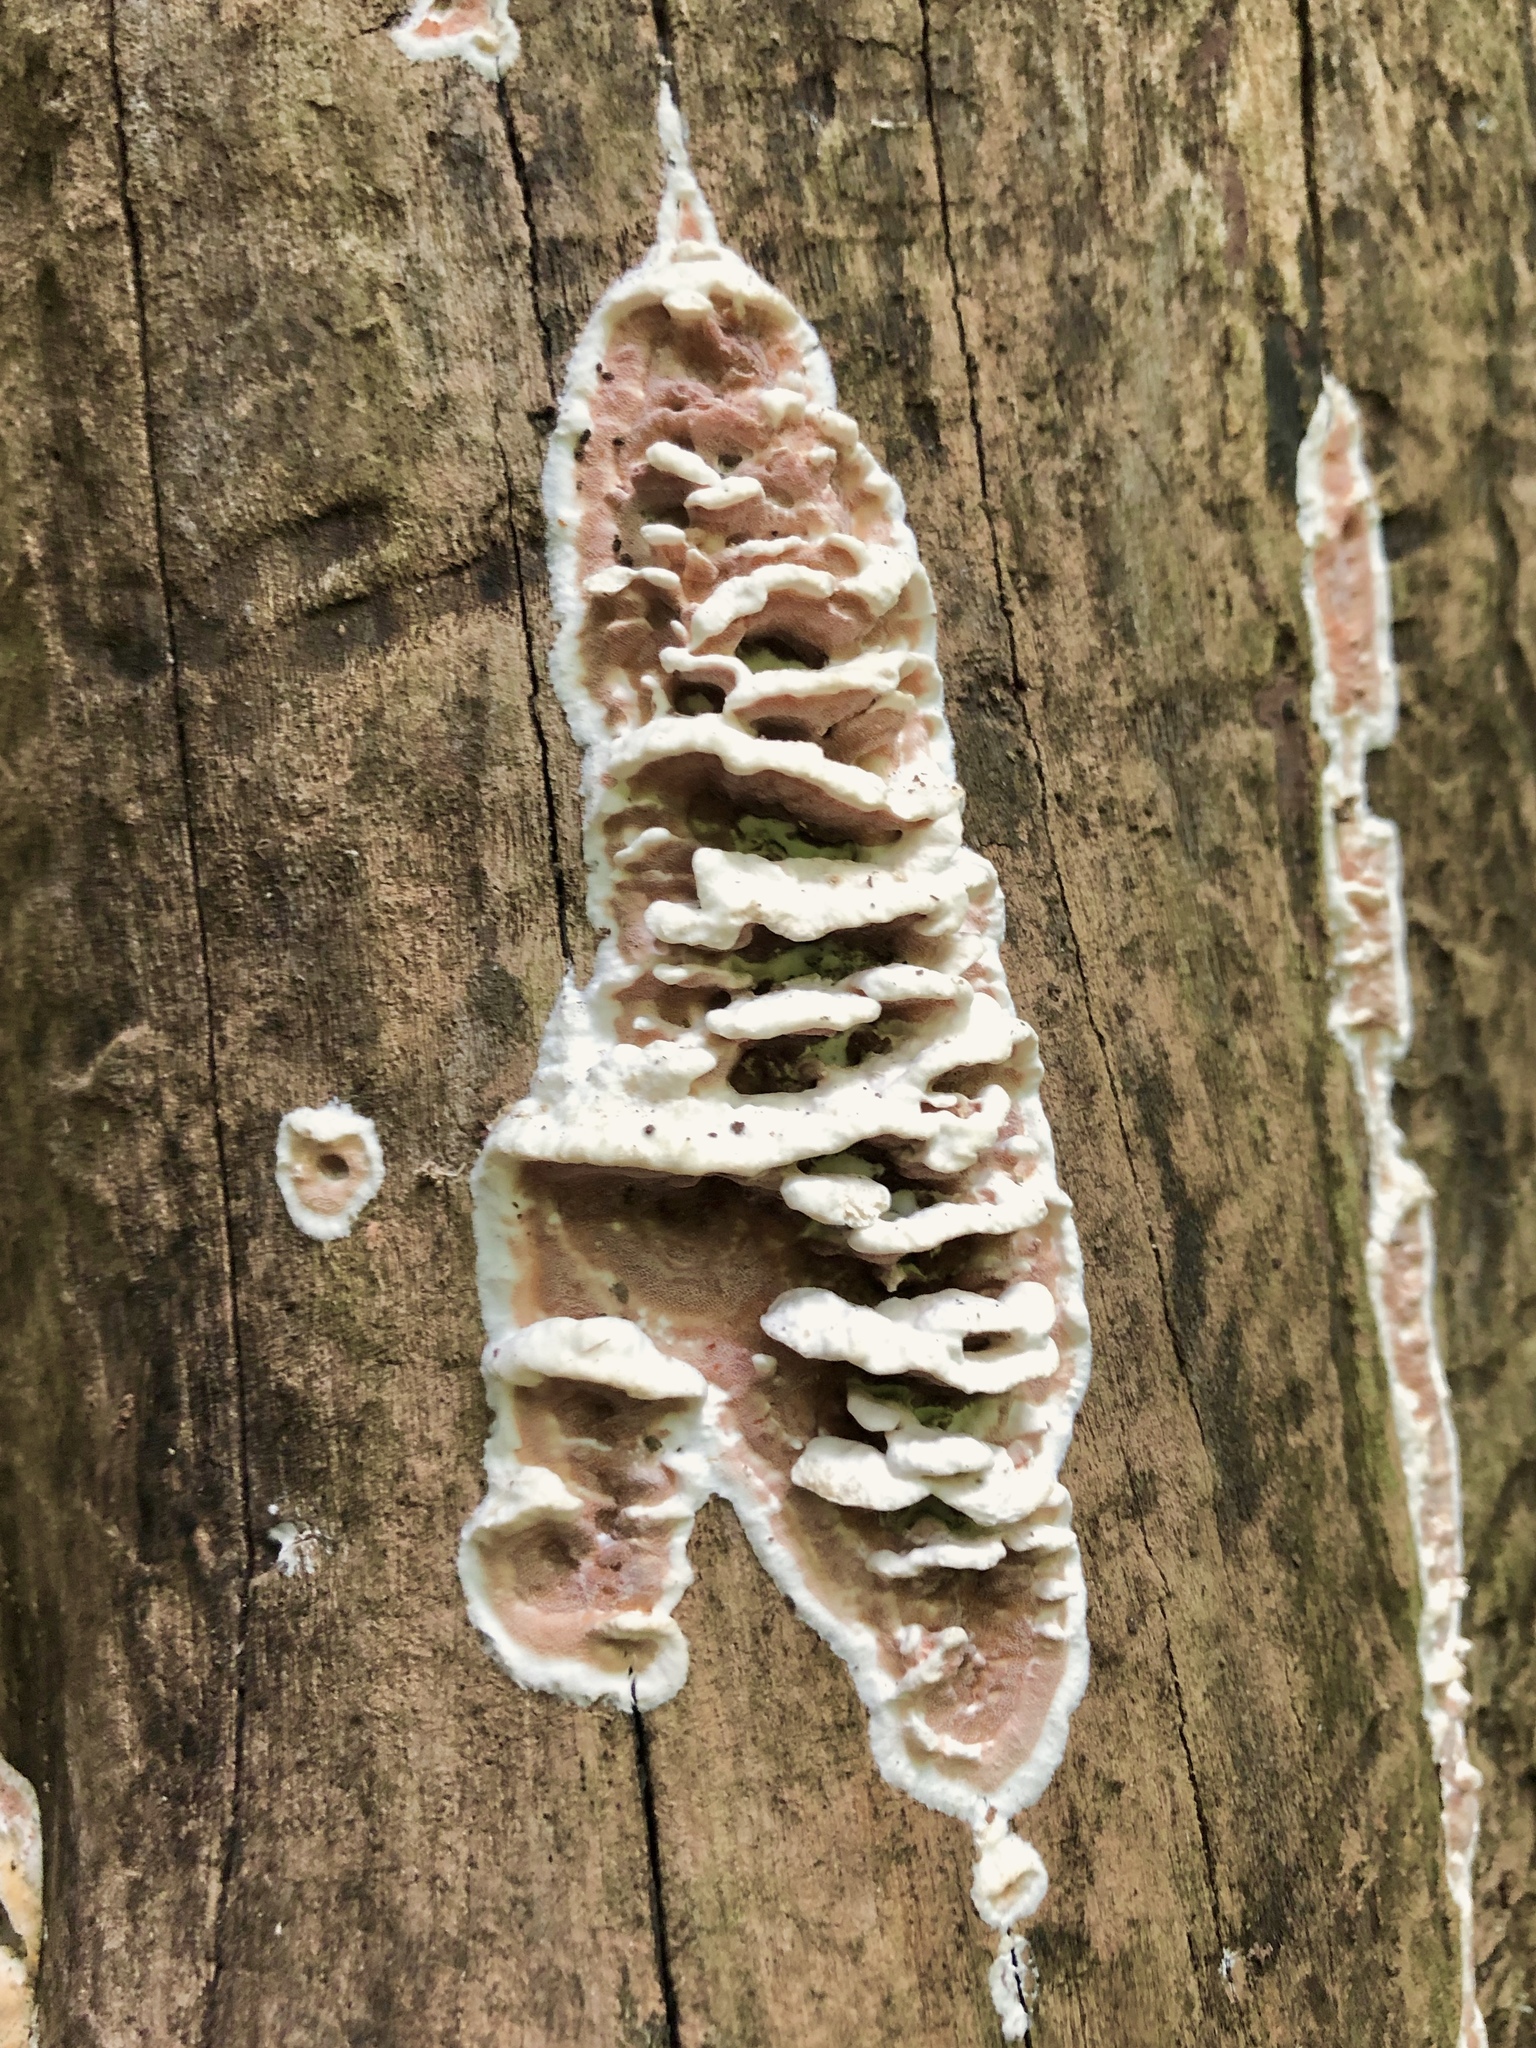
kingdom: Fungi
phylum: Basidiomycota
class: Agaricomycetes
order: Polyporales
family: Irpicaceae
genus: Vitreoporus
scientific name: Vitreoporus dichrous
